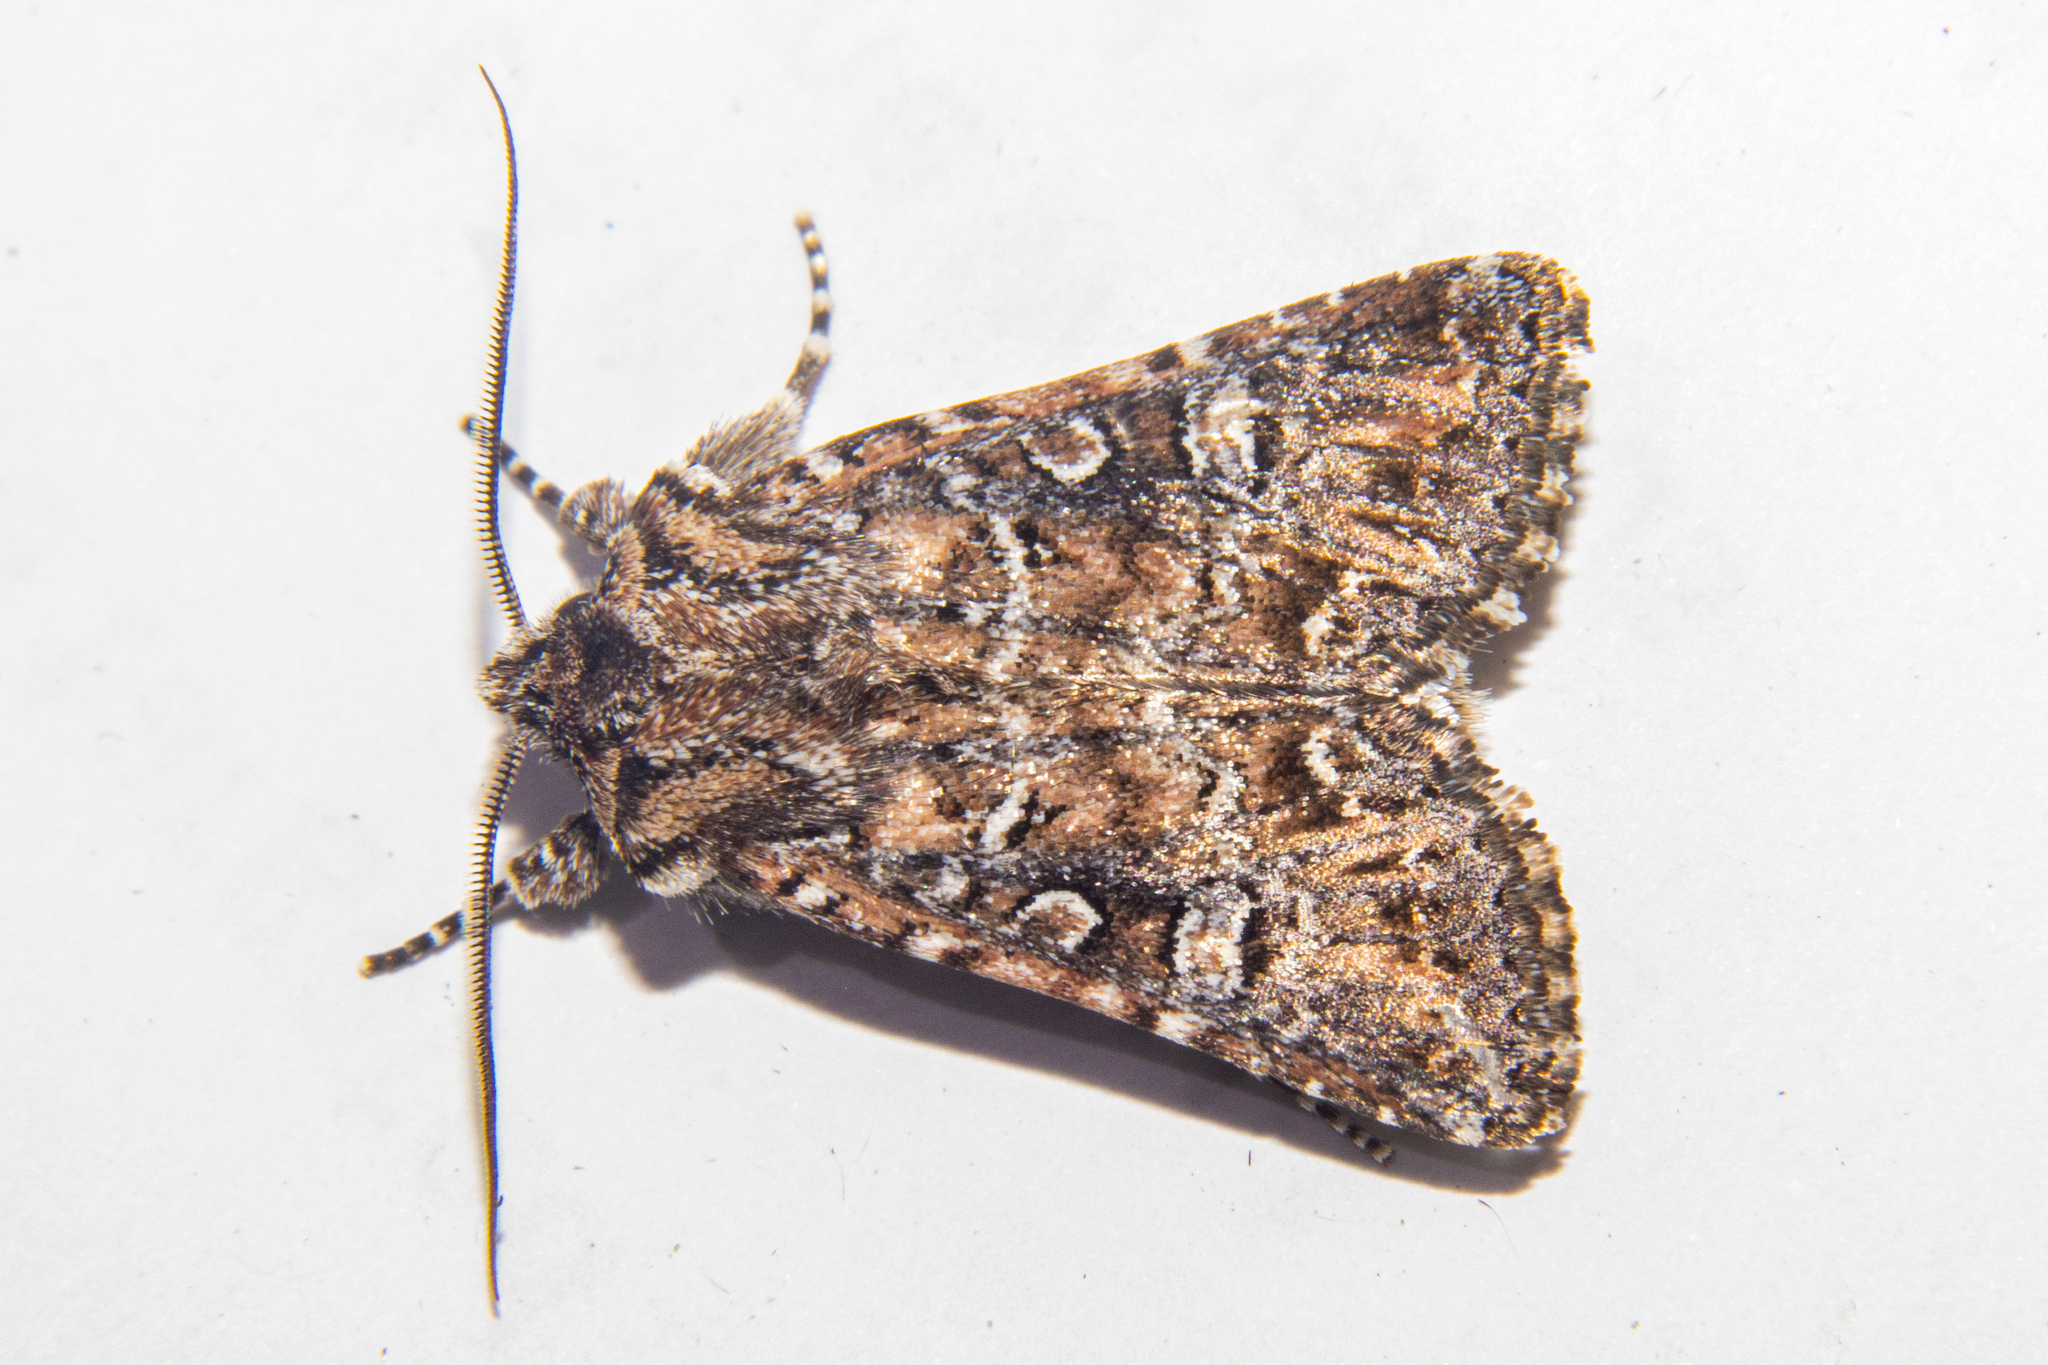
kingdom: Animalia
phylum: Arthropoda
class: Insecta
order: Lepidoptera
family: Noctuidae
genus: Ichneutica
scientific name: Ichneutica lithias
